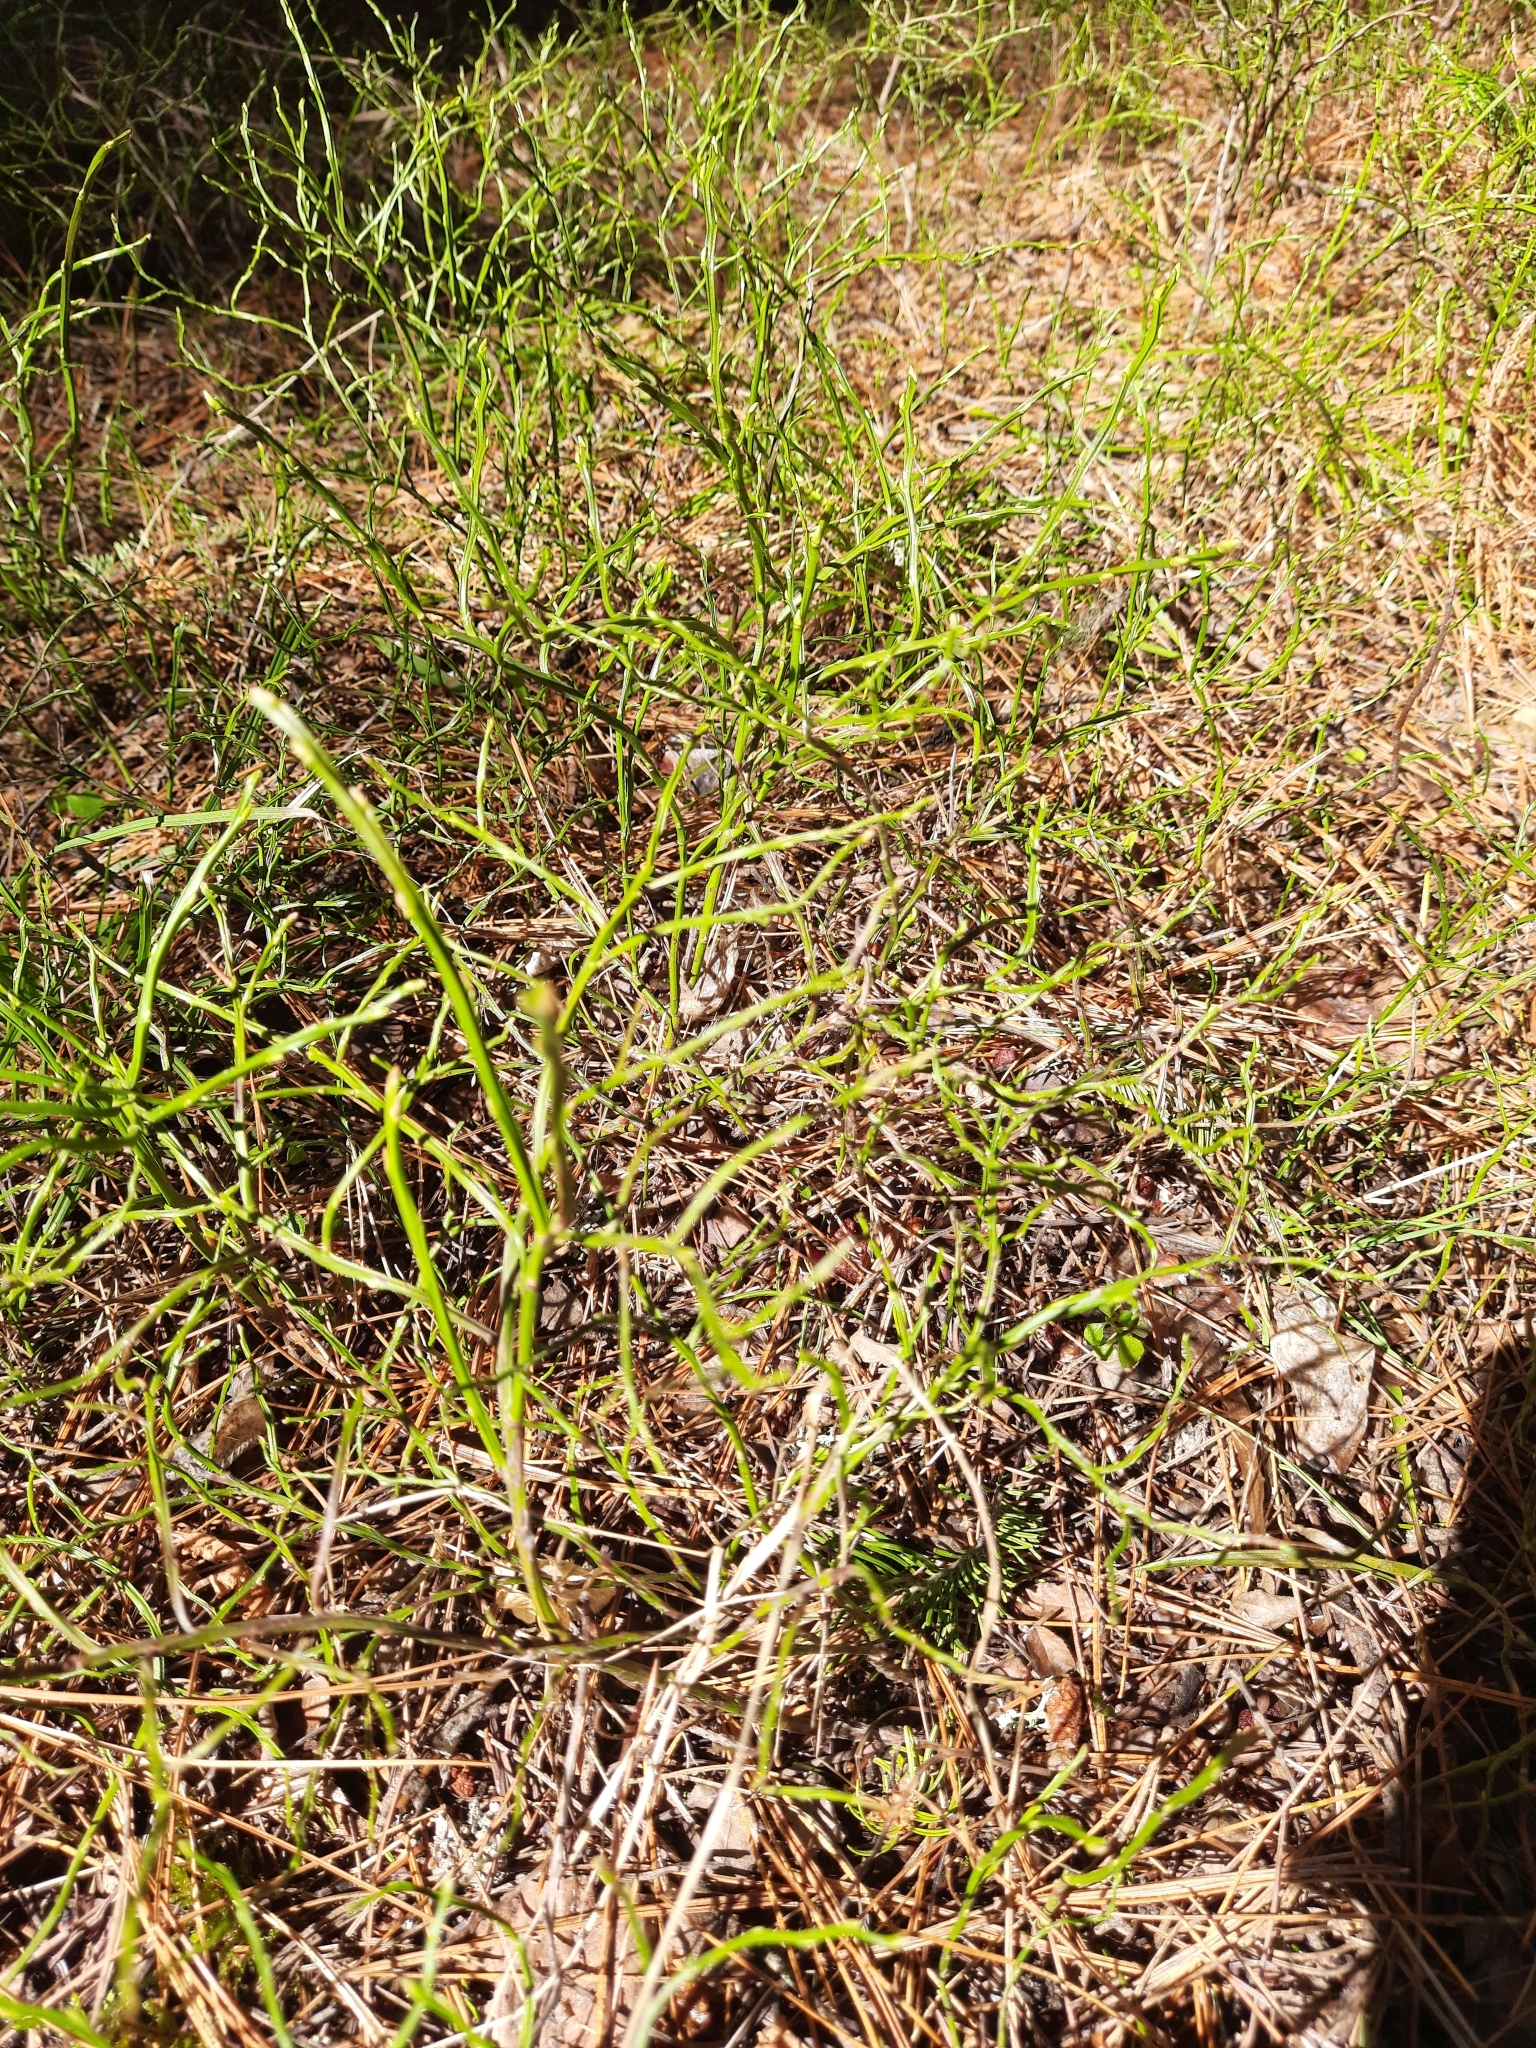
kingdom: Plantae
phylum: Tracheophyta
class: Magnoliopsida
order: Ericales
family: Ericaceae
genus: Vaccinium
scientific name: Vaccinium myrtillus
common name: Bilberry
